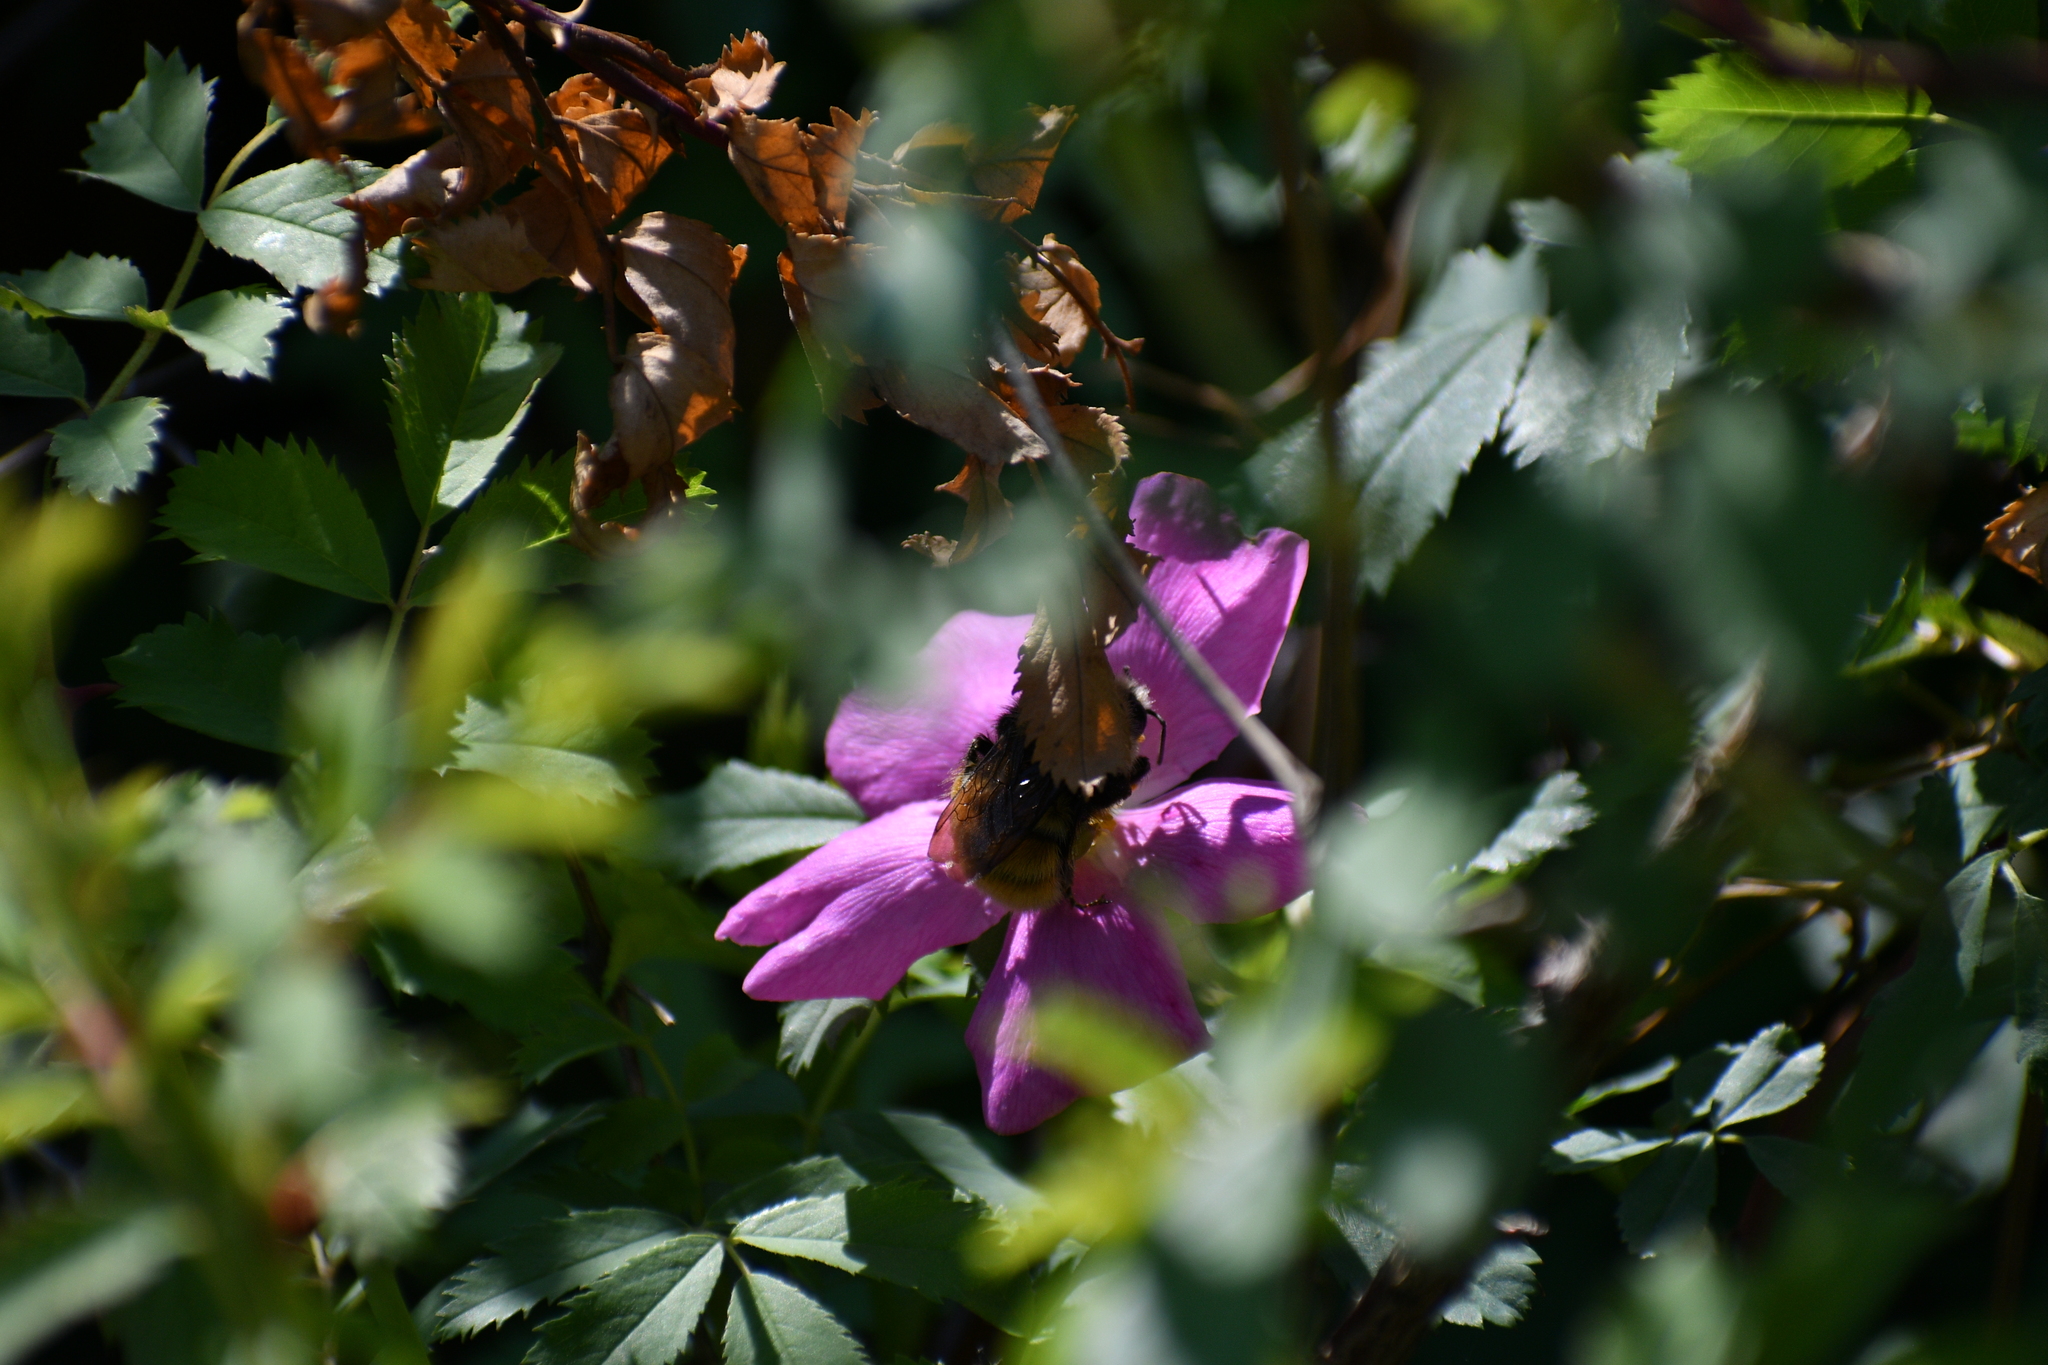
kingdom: Animalia
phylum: Arthropoda
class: Insecta
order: Hymenoptera
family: Apidae
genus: Bombus
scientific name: Bombus vancouverensis
